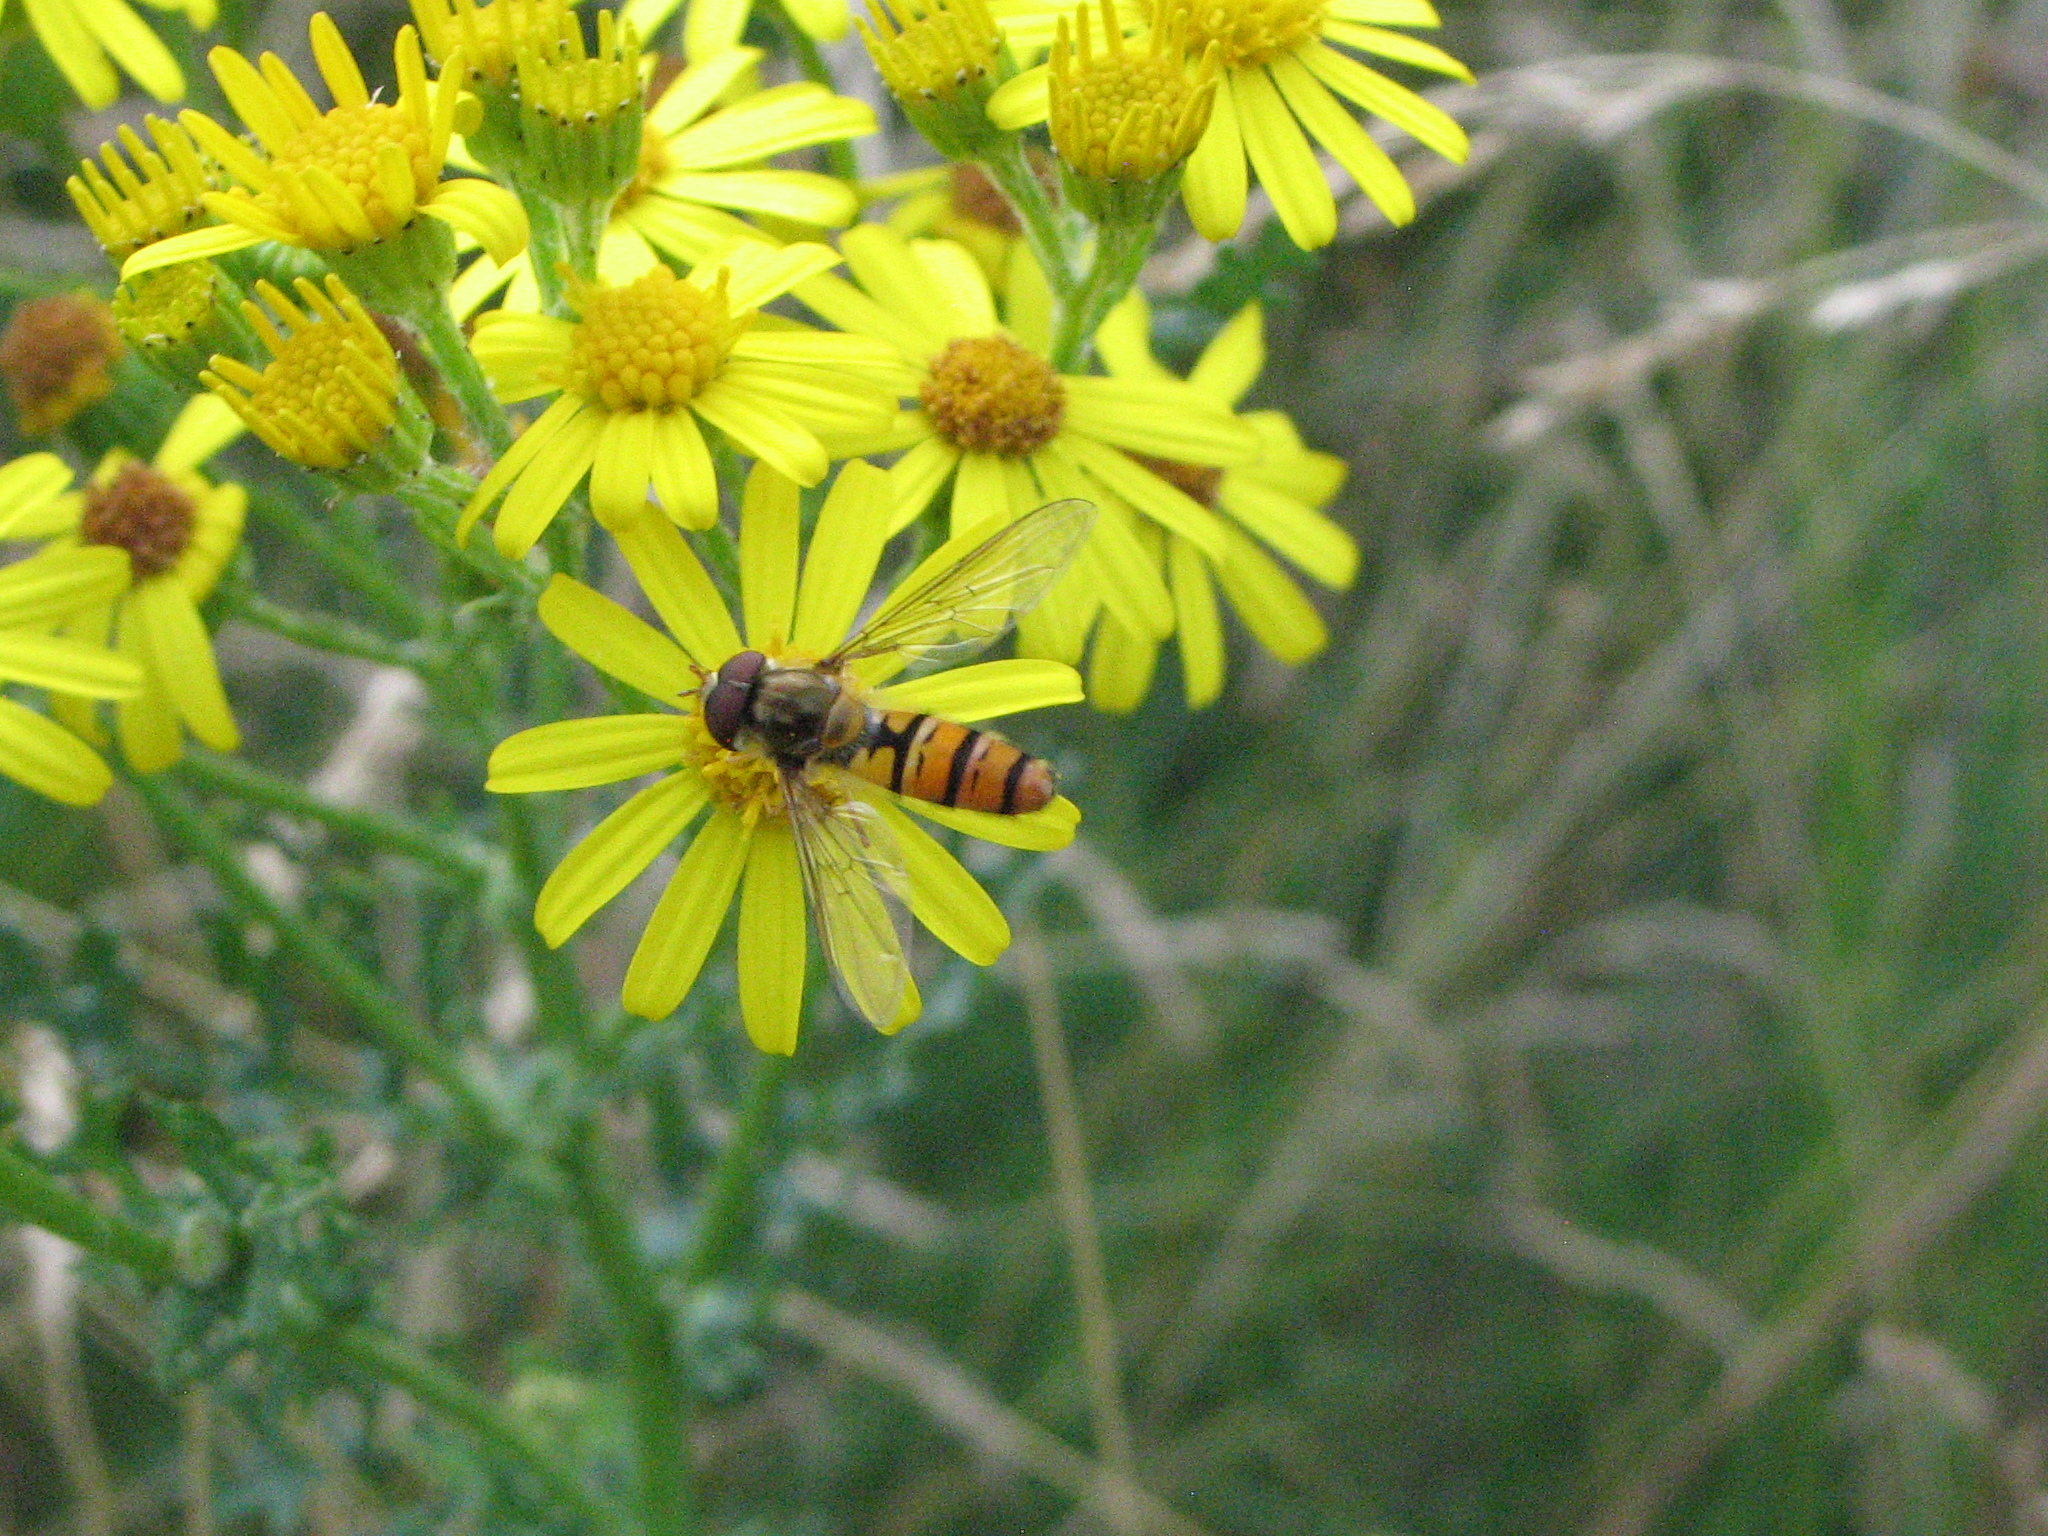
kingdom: Animalia
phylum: Arthropoda
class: Insecta
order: Diptera
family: Syrphidae
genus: Episyrphus
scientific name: Episyrphus balteatus
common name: Marmalade hoverfly
